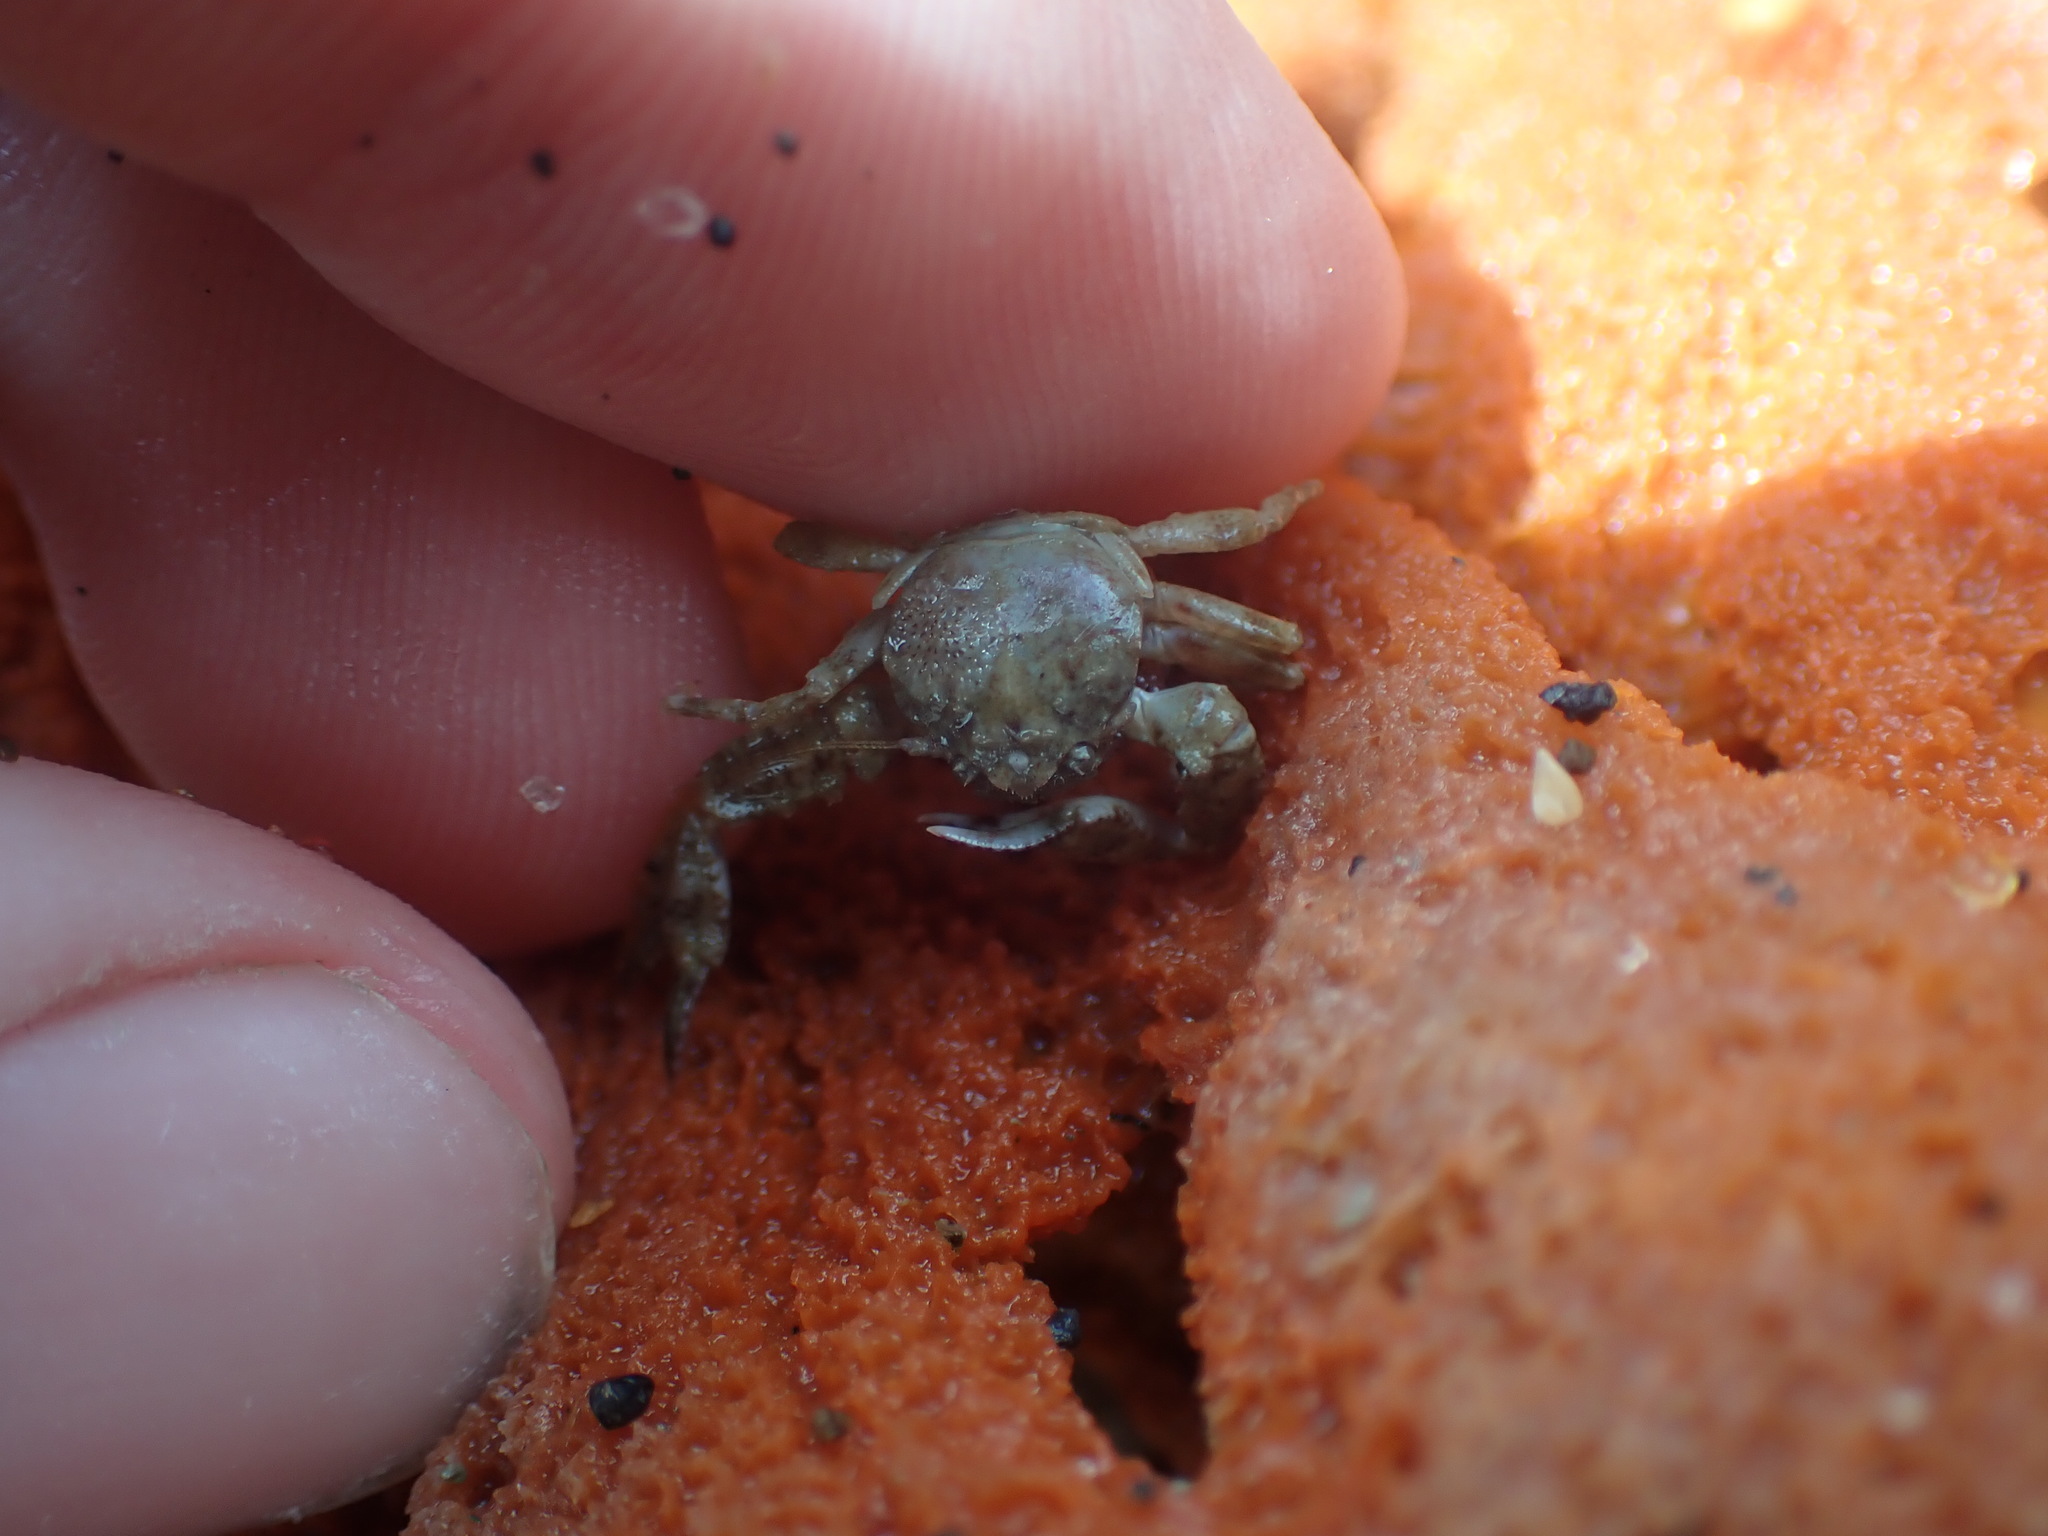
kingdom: Animalia
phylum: Arthropoda
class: Malacostraca
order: Decapoda
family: Porcellanidae
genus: Petrolisthes
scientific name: Petrolisthes novaezelandiae
